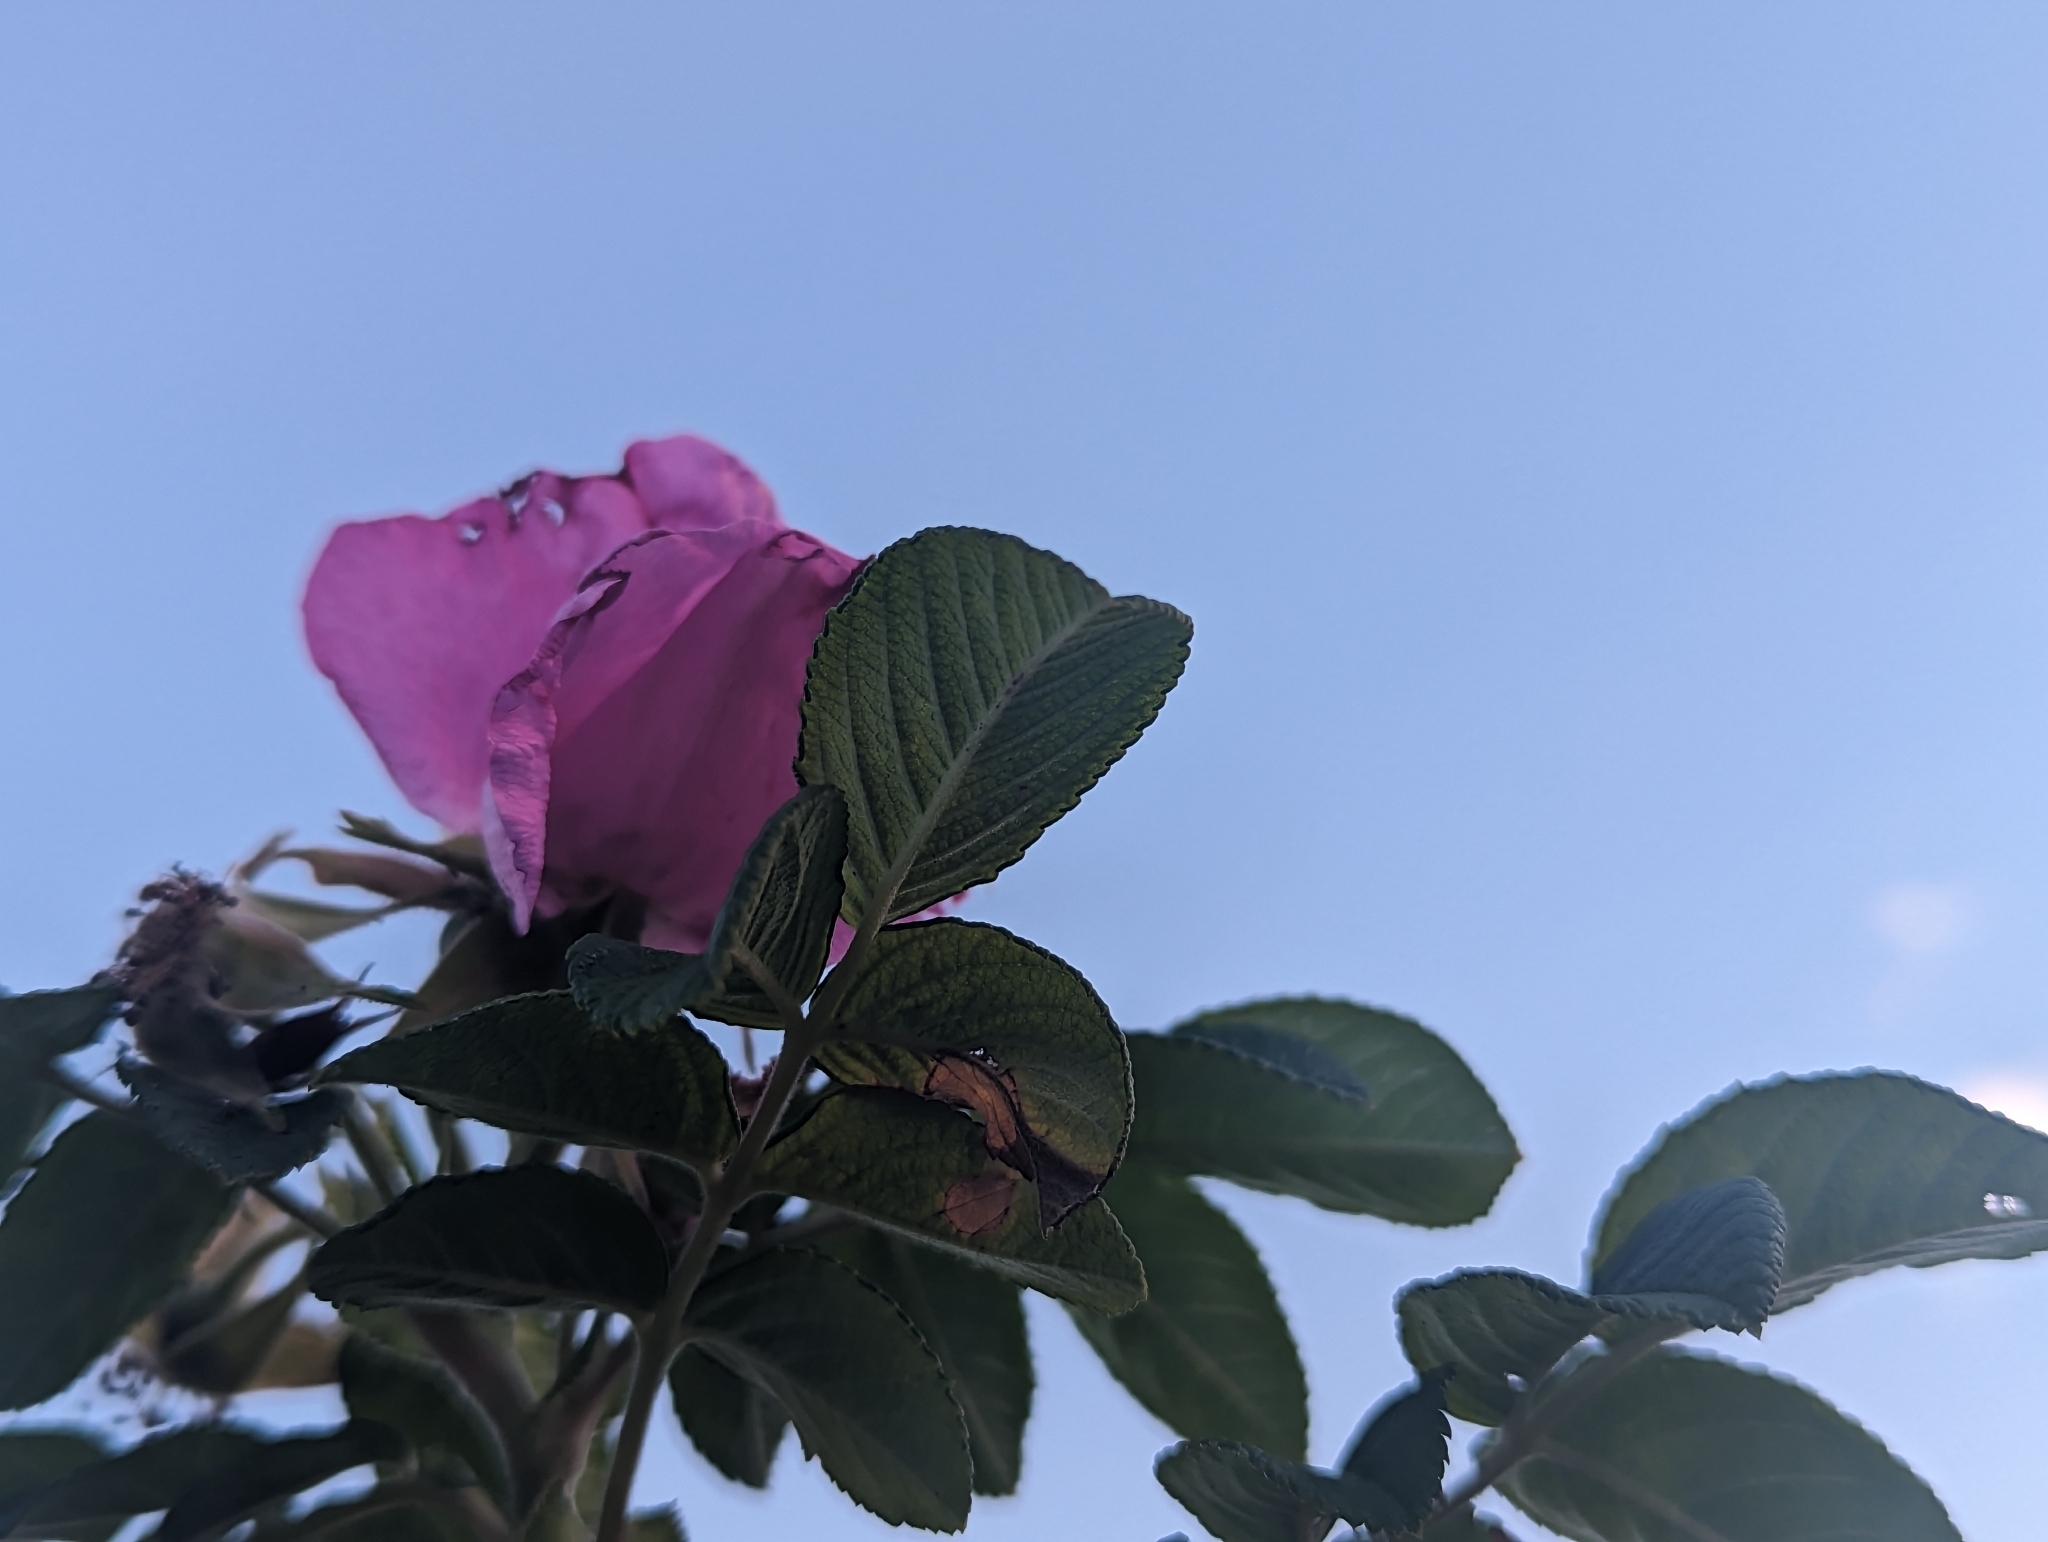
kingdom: Plantae
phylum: Tracheophyta
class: Magnoliopsida
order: Rosales
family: Rosaceae
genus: Rosa
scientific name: Rosa rugosa
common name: Japanese rose
